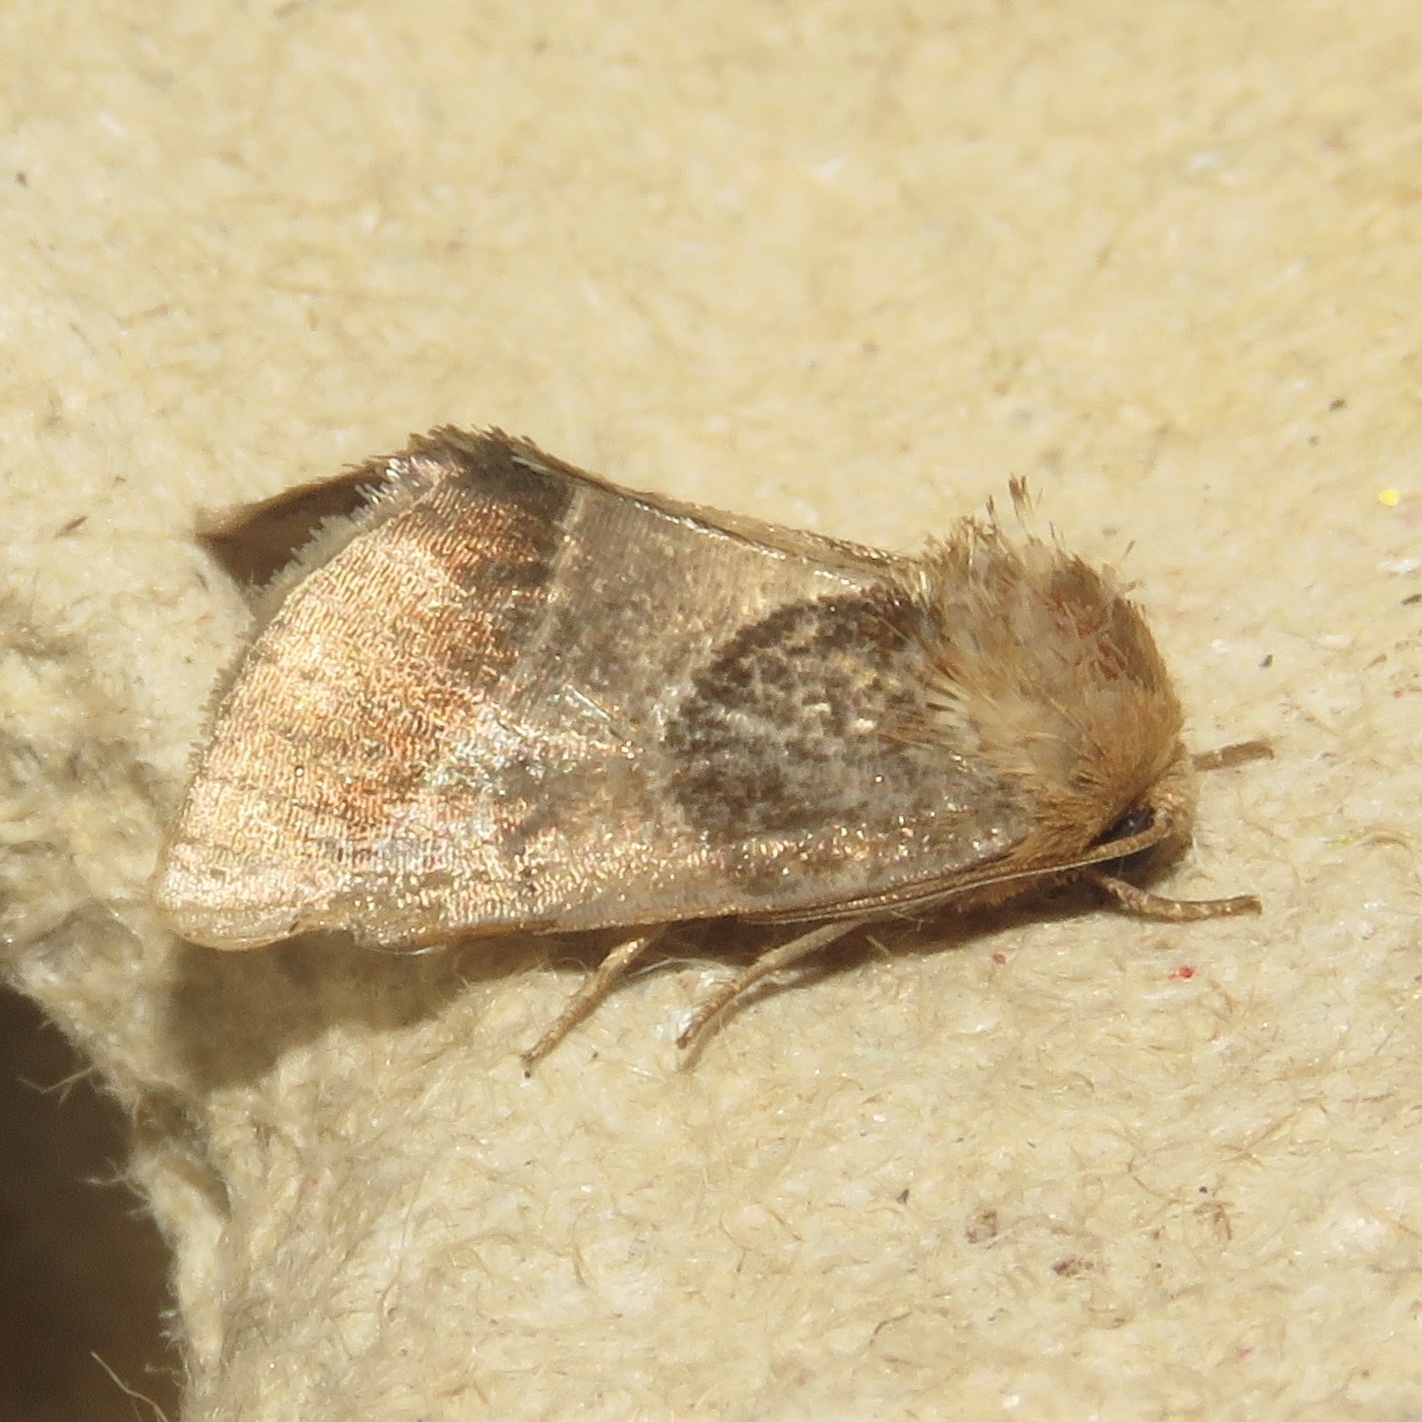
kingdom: Animalia
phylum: Arthropoda
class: Insecta
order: Lepidoptera
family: Noctuidae
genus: Schinia
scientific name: Schinia arcigera
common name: Arcigera flower moth
